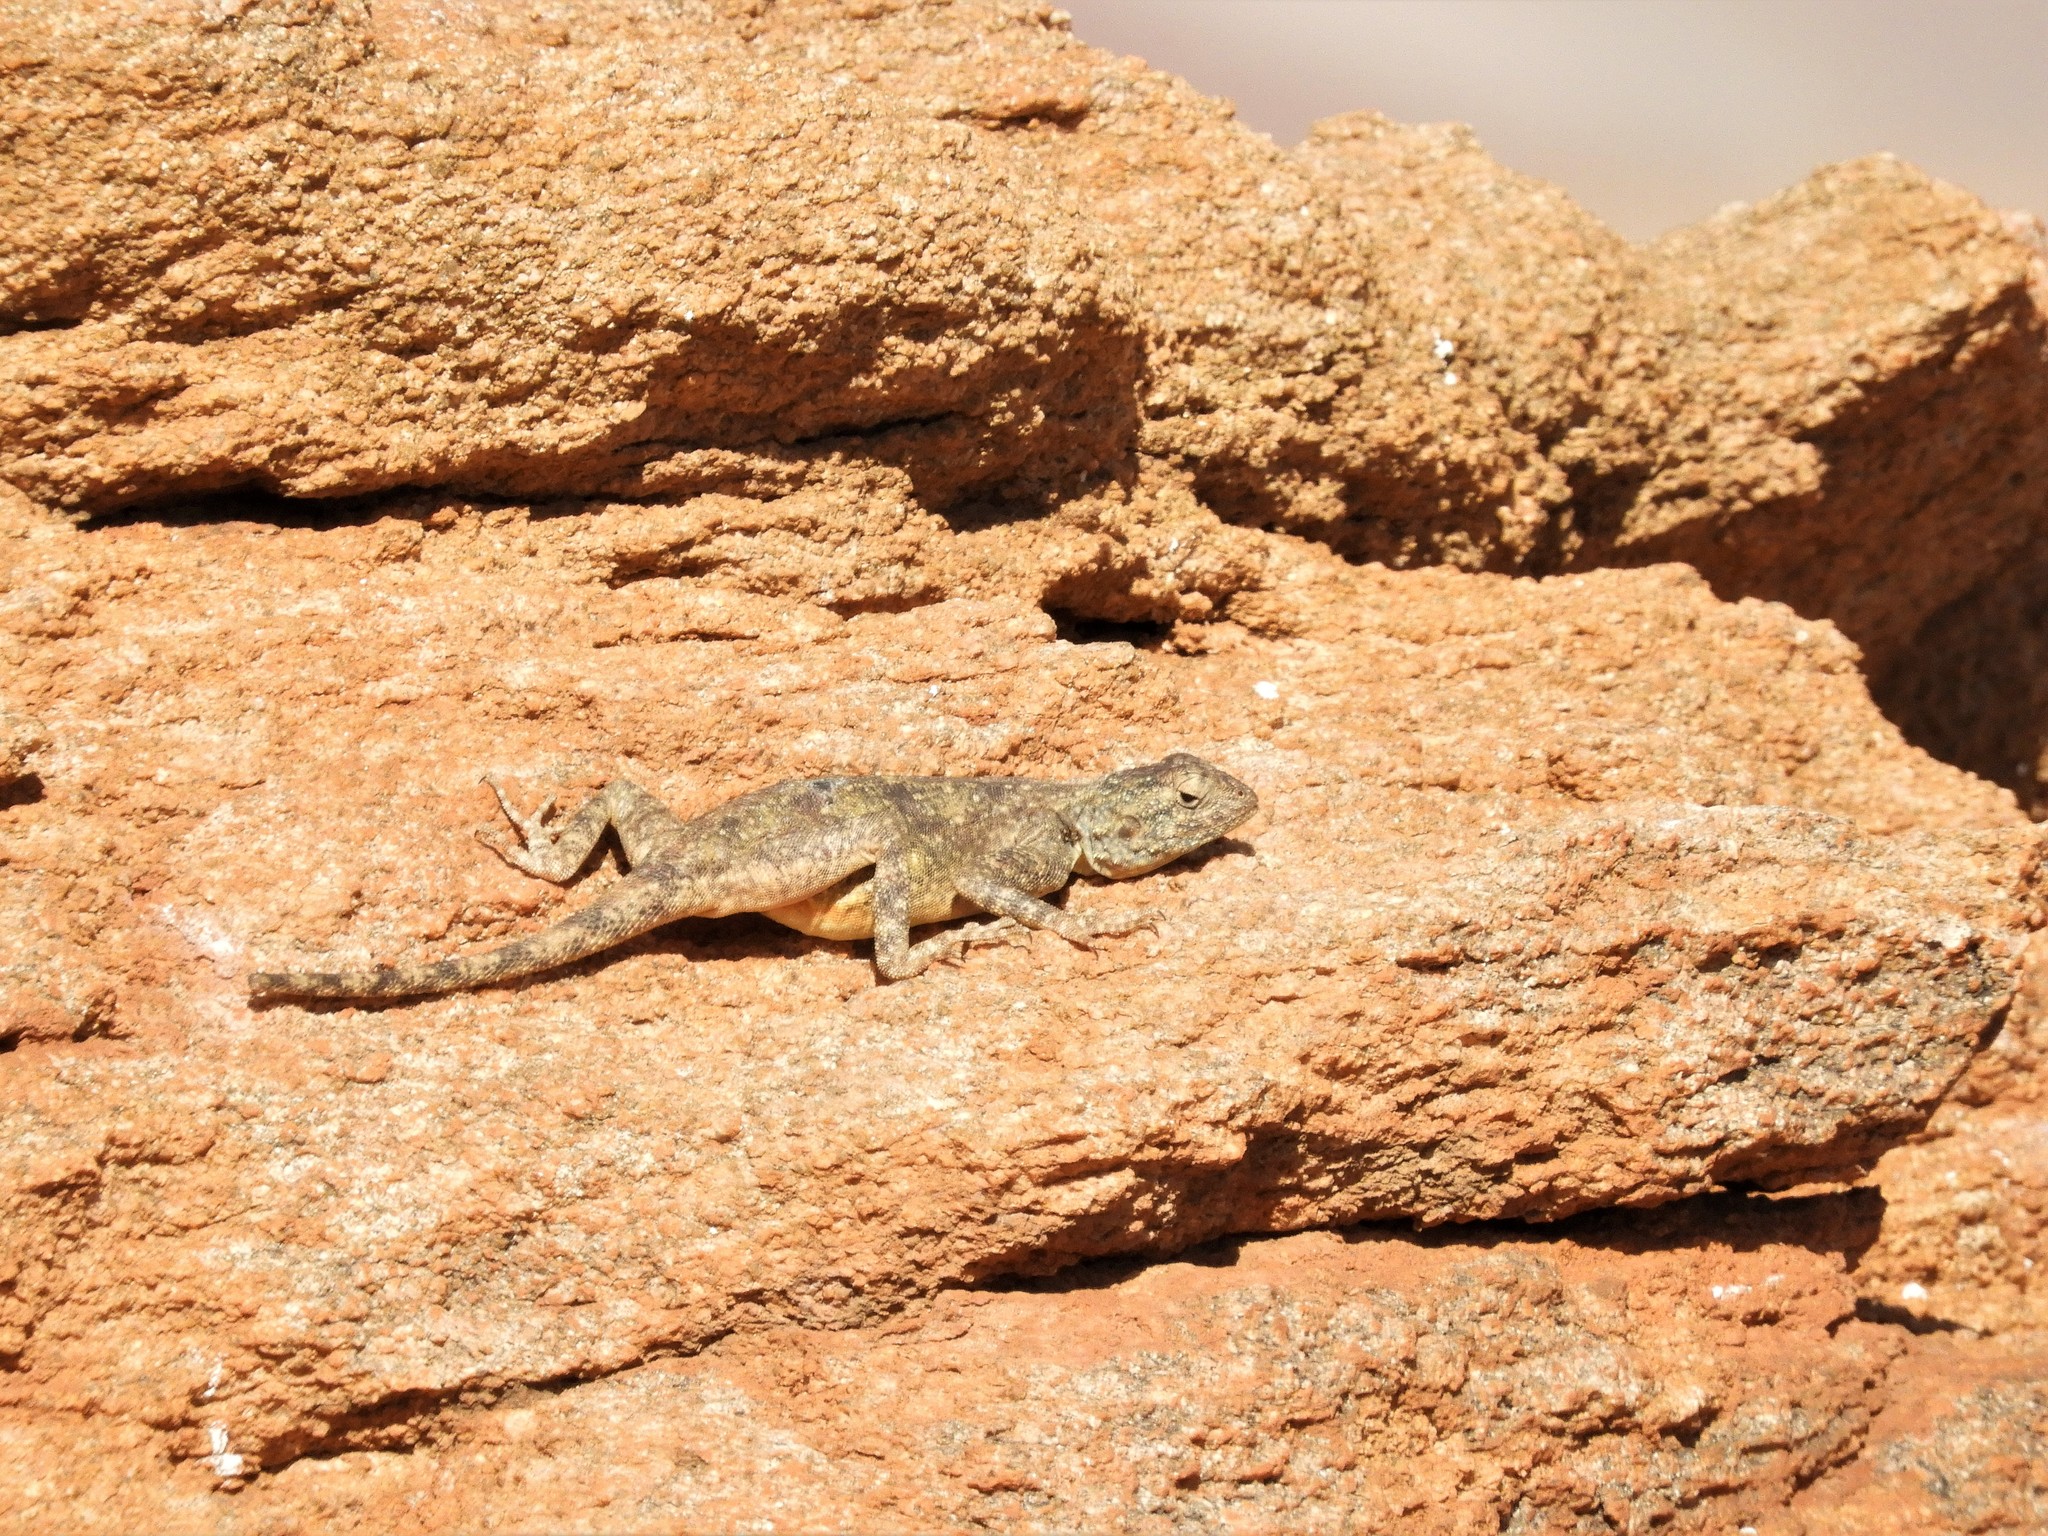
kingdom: Animalia
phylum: Chordata
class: Squamata
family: Agamidae
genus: Agama
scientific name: Agama atra
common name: Southern african rock agama
